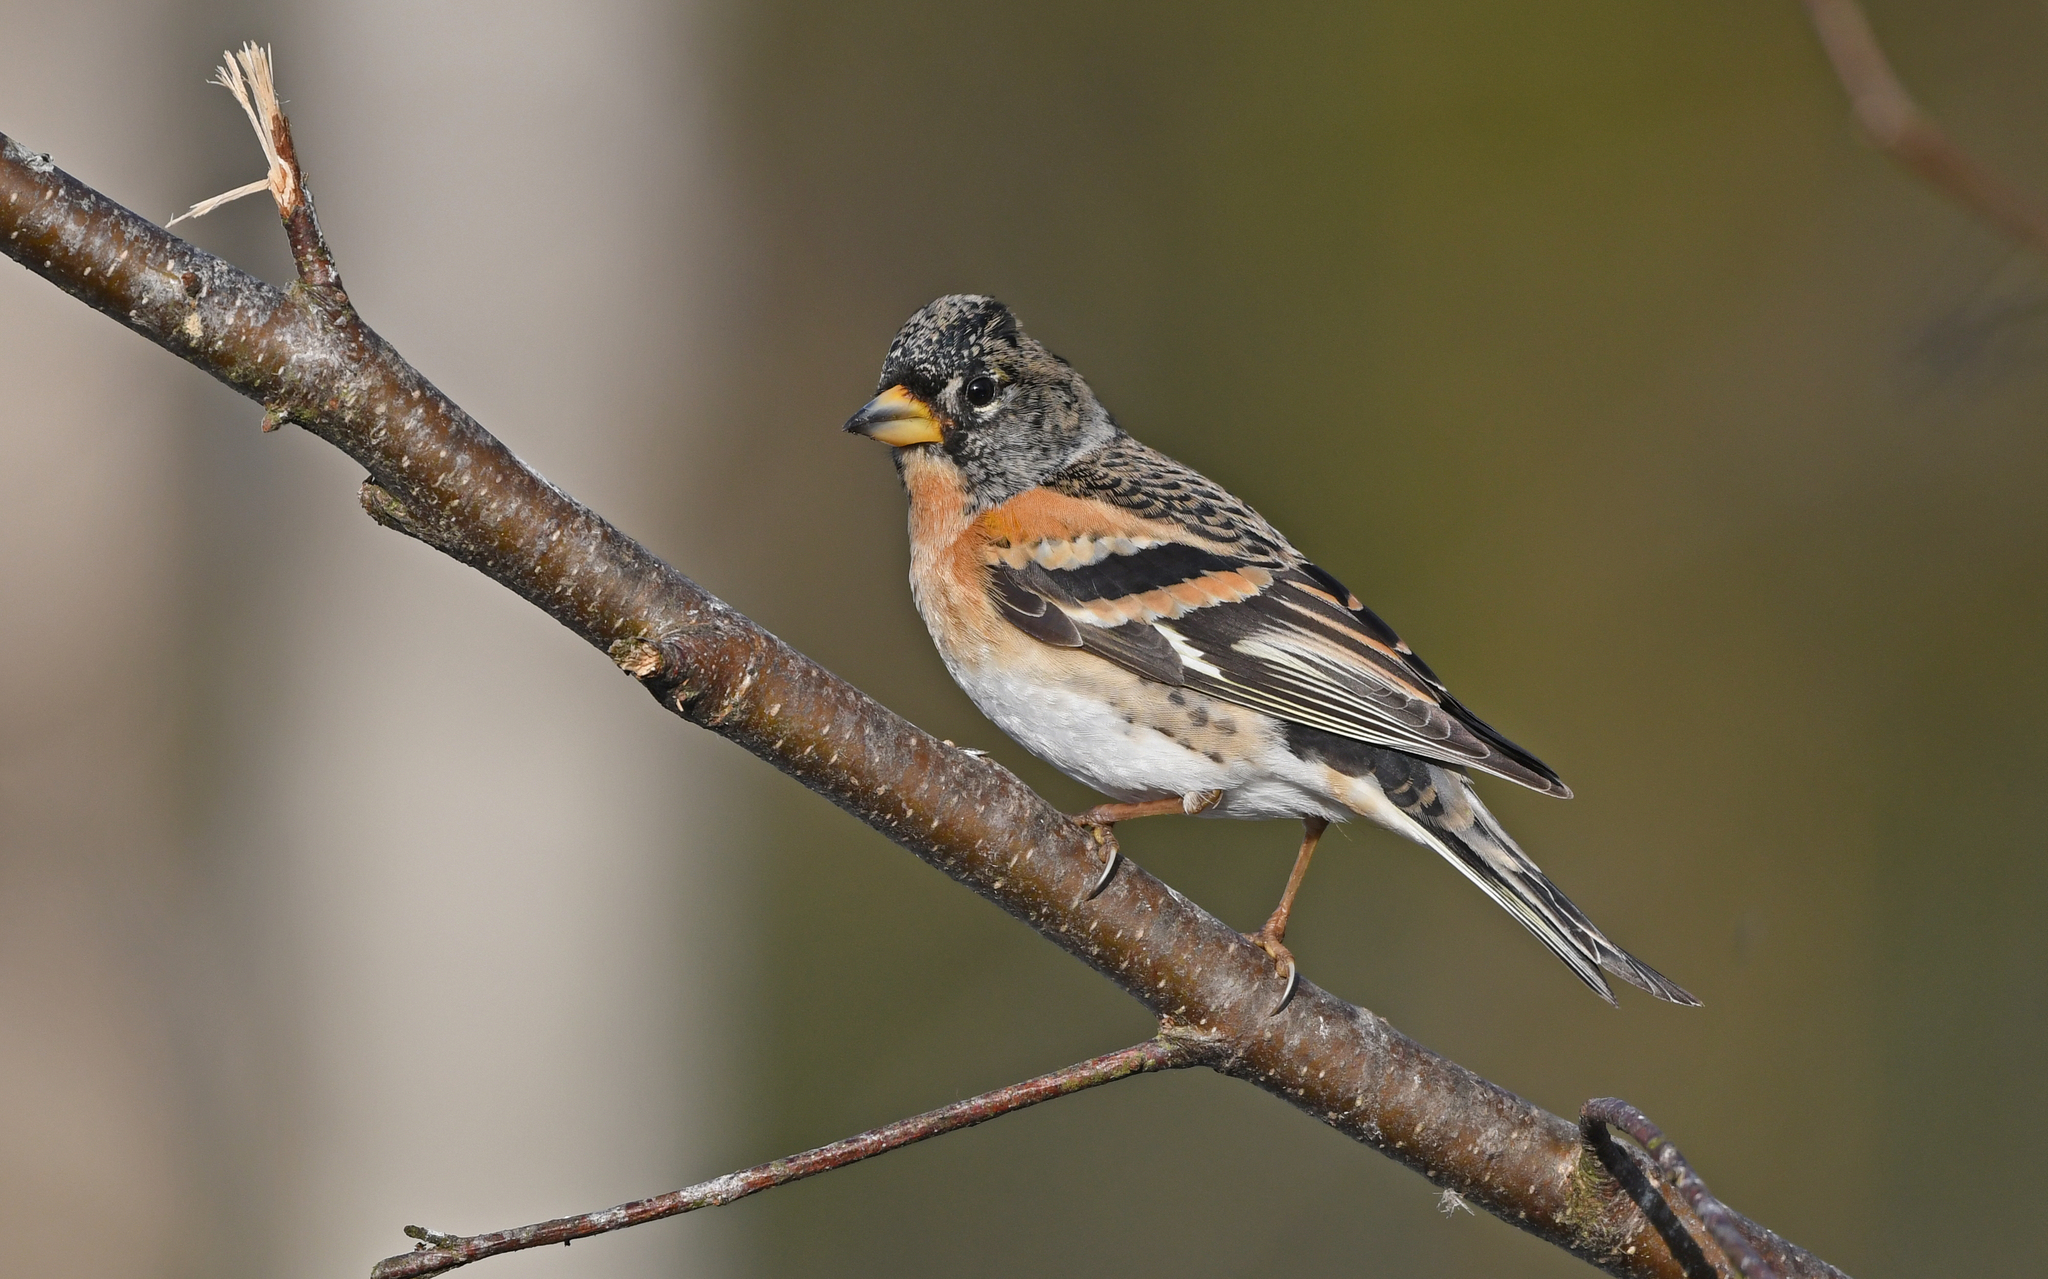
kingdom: Animalia
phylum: Chordata
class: Aves
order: Passeriformes
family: Fringillidae
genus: Fringilla
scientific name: Fringilla montifringilla
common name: Brambling
